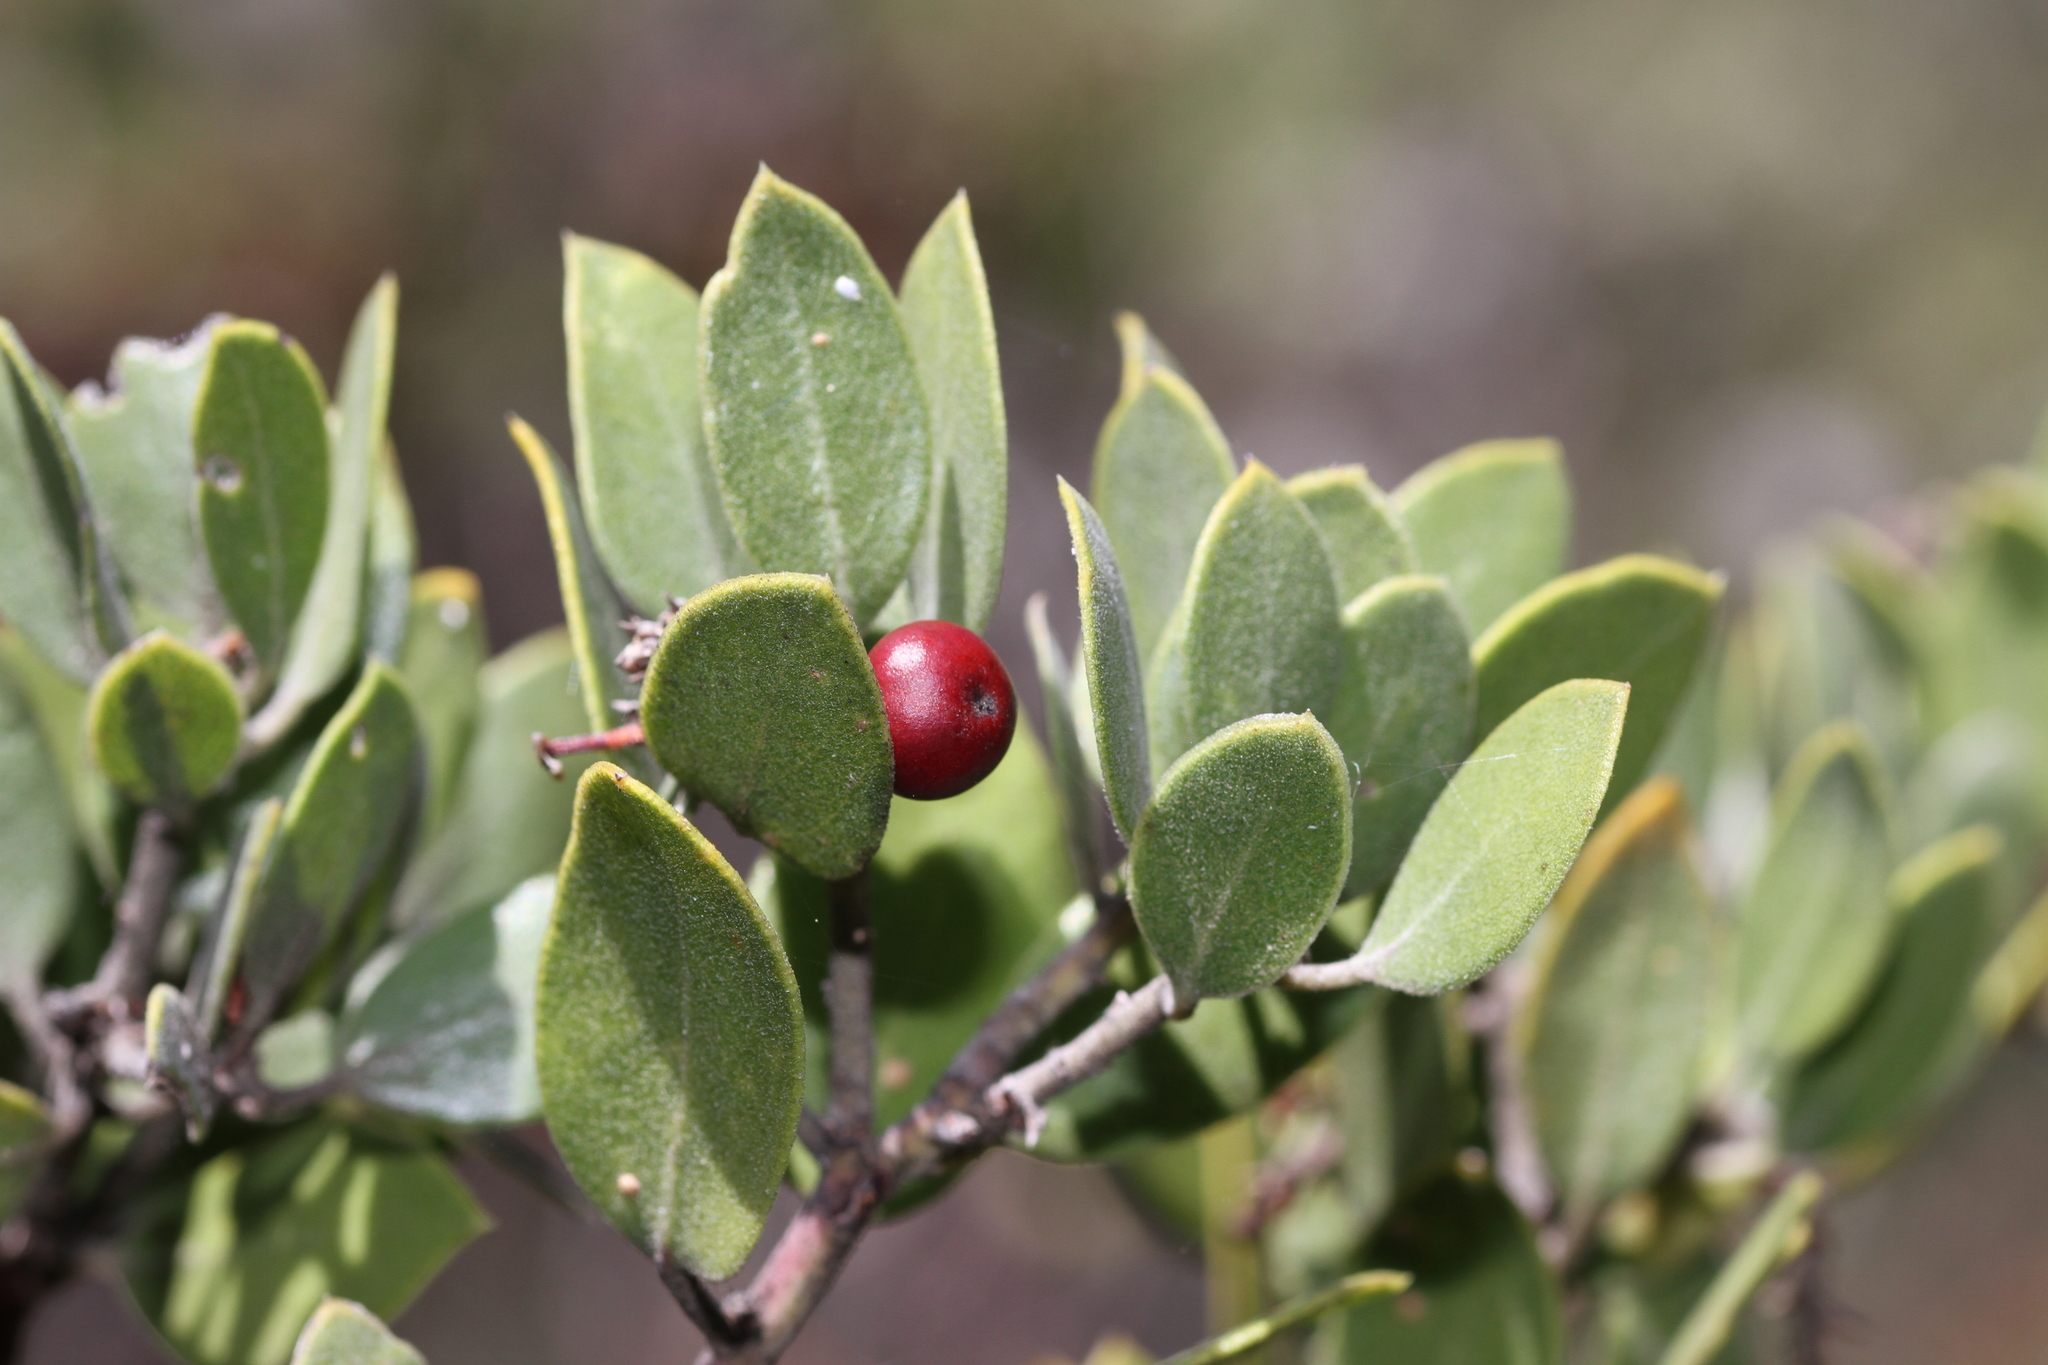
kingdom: Plantae
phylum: Tracheophyta
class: Magnoliopsida
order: Ericales
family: Ericaceae
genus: Arctostaphylos
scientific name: Arctostaphylos montana
